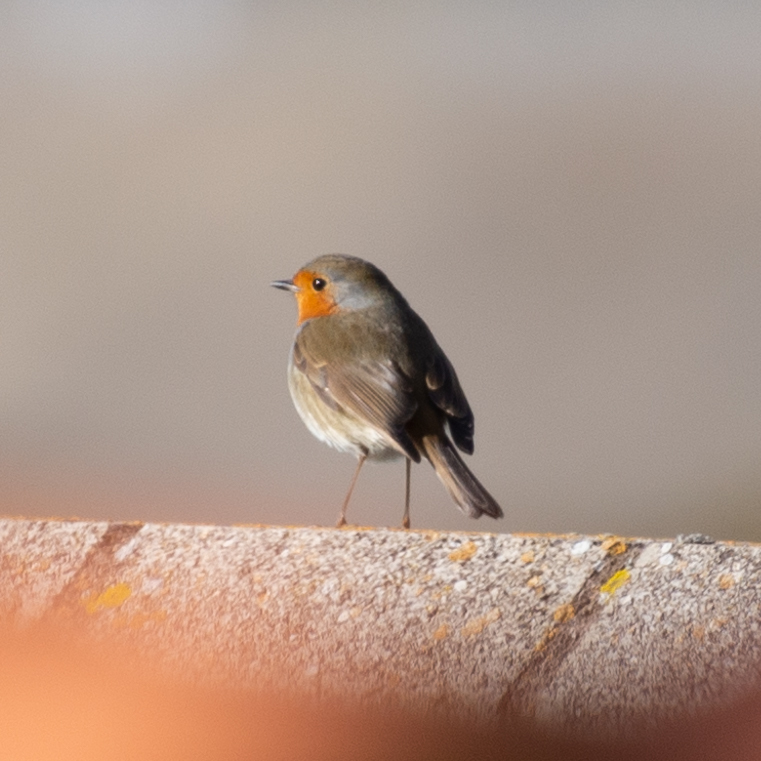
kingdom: Animalia
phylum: Chordata
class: Aves
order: Passeriformes
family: Muscicapidae
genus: Erithacus
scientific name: Erithacus rubecula
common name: European robin
